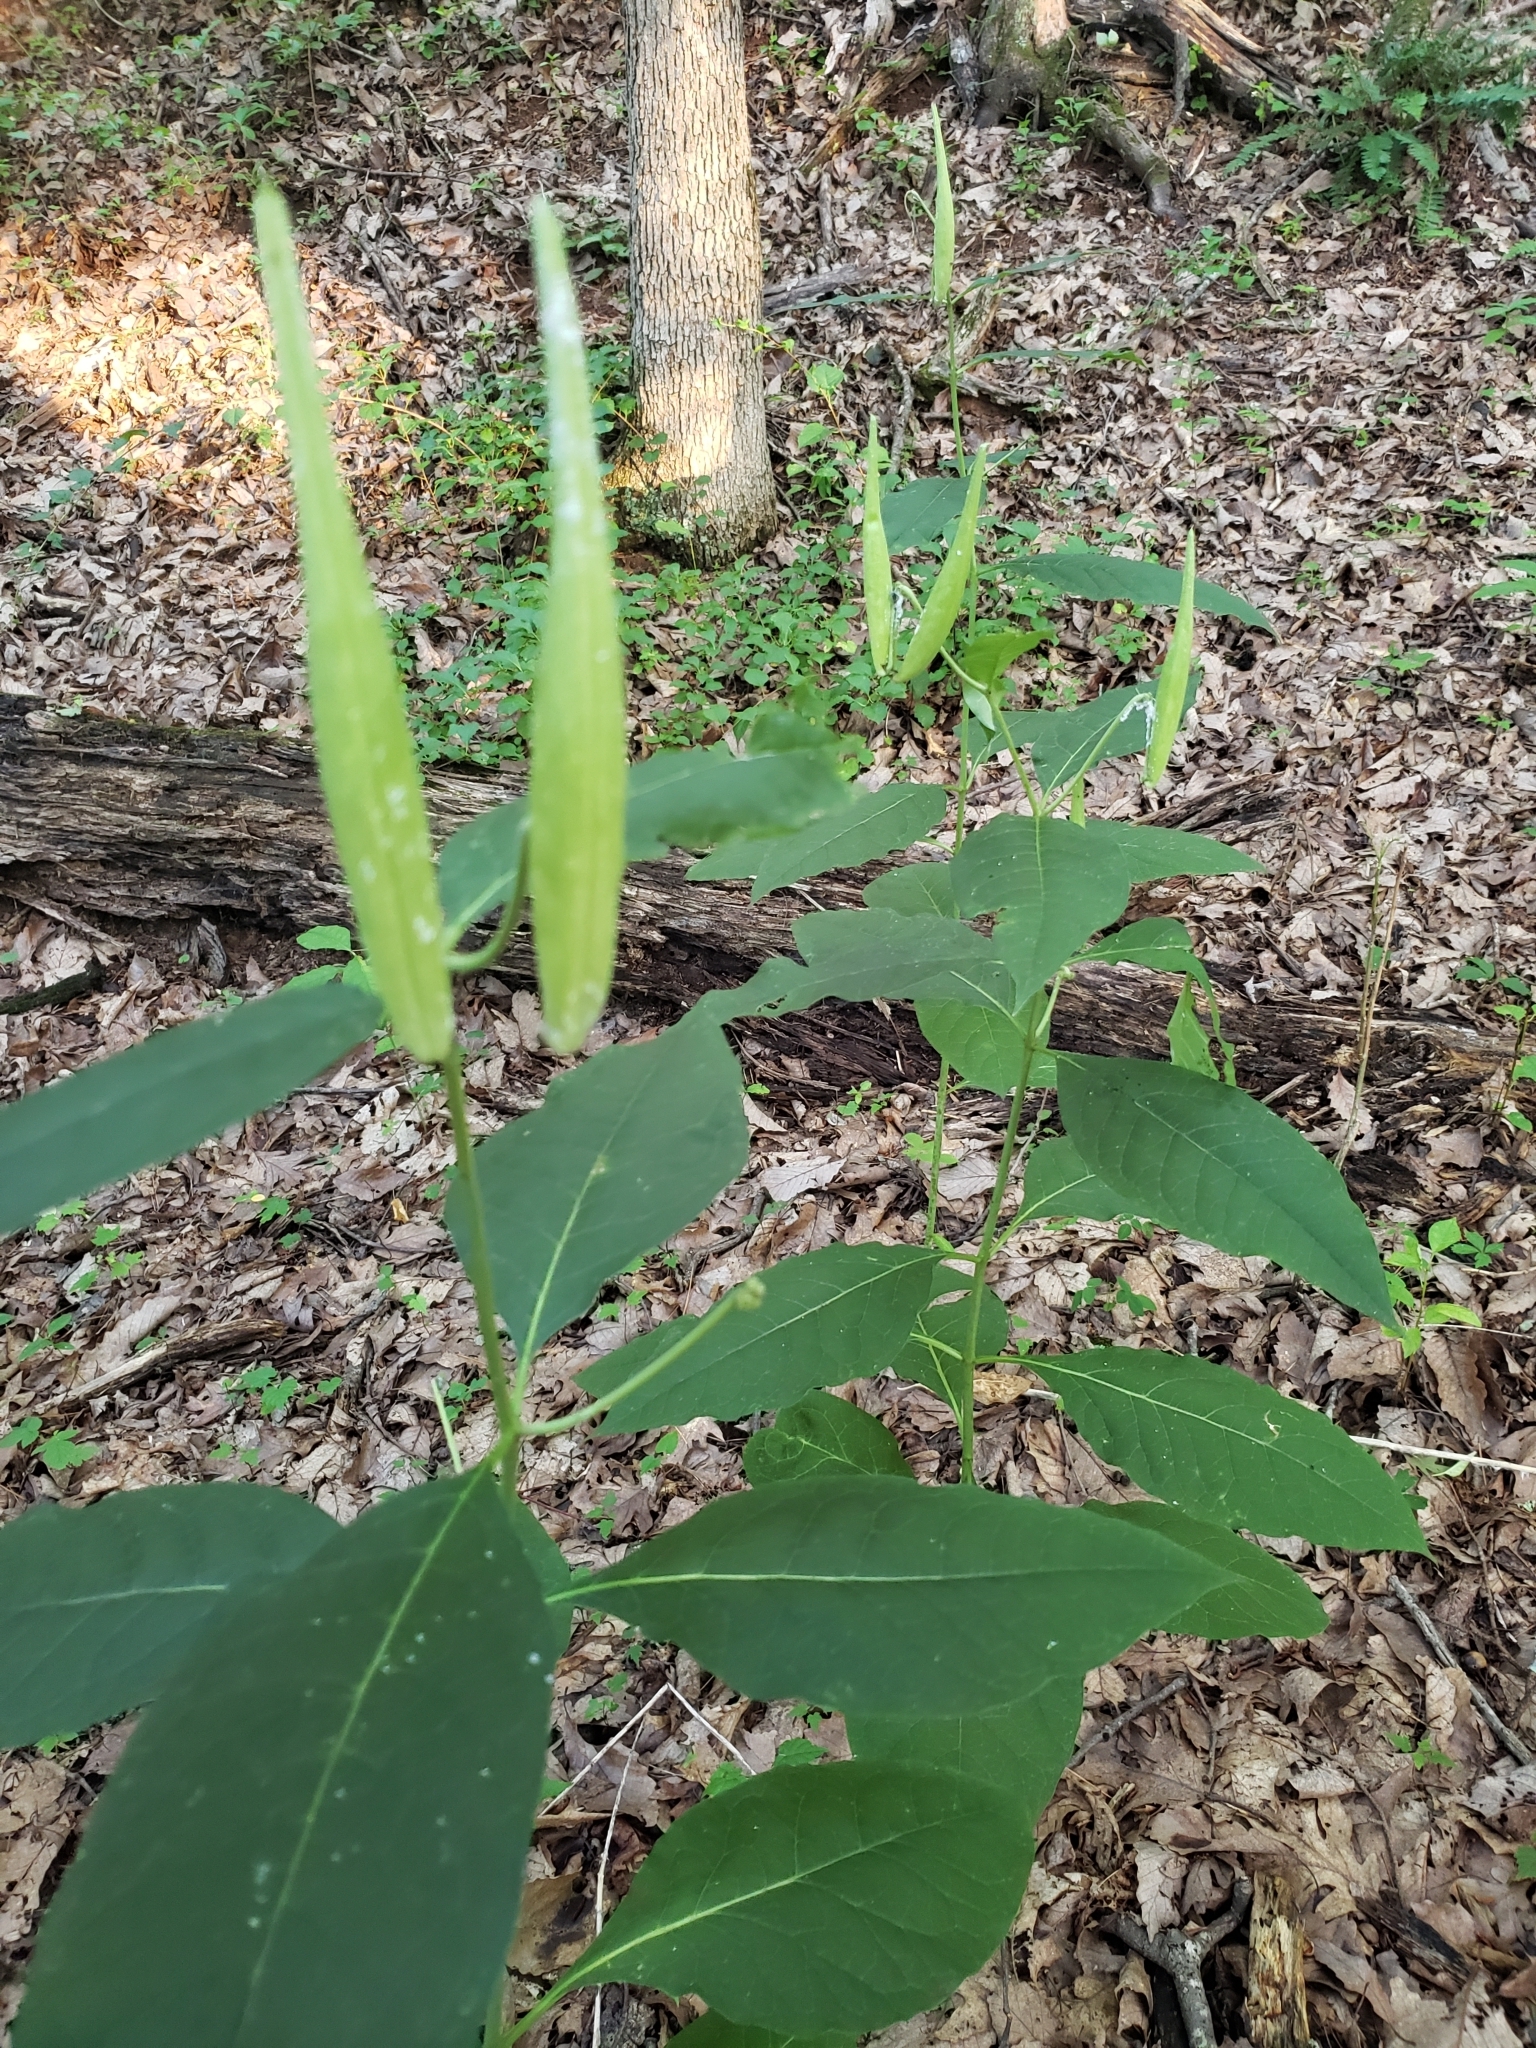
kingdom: Plantae
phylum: Tracheophyta
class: Magnoliopsida
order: Gentianales
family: Apocynaceae
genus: Asclepias
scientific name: Asclepias exaltata
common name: Poke milkweed
